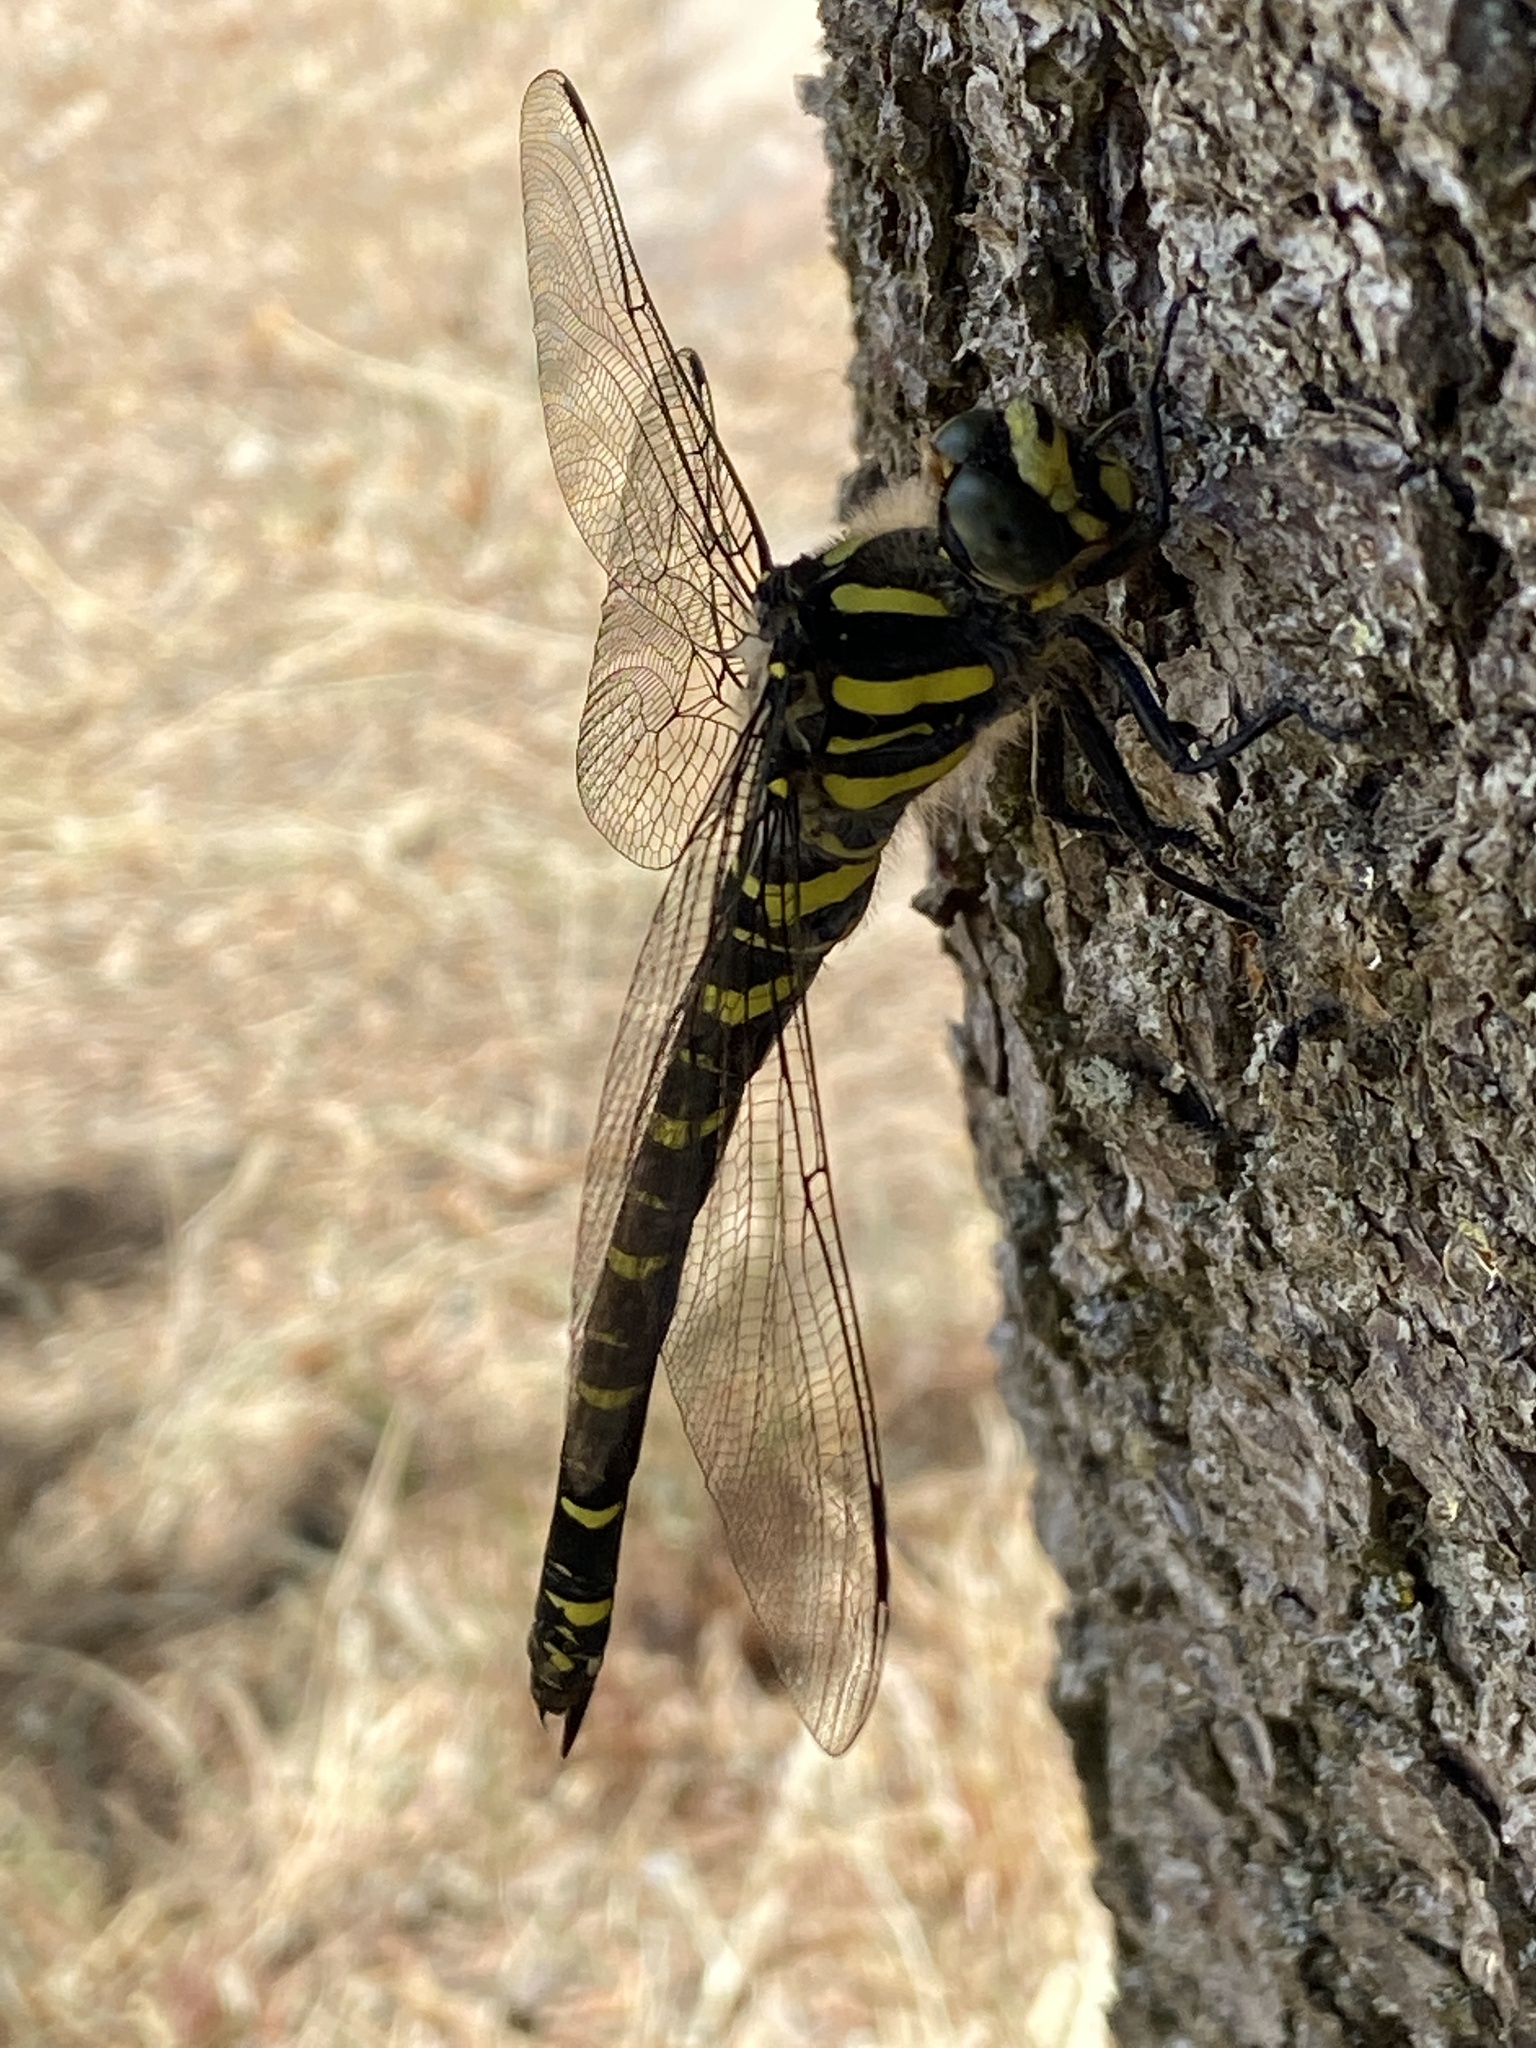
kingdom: Animalia
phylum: Arthropoda
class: Insecta
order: Odonata
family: Cordulegastridae
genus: Cordulegaster
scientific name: Cordulegaster boltonii
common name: Golden-ringed dragonfly
